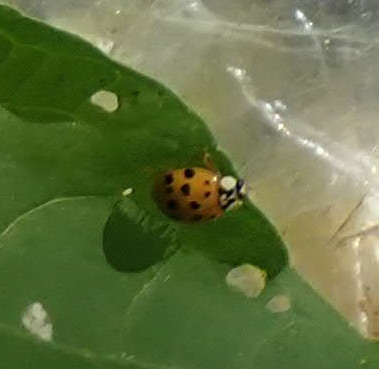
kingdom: Animalia
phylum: Arthropoda
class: Insecta
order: Coleoptera
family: Coccinellidae
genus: Harmonia
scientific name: Harmonia axyridis
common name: Harlequin ladybird
